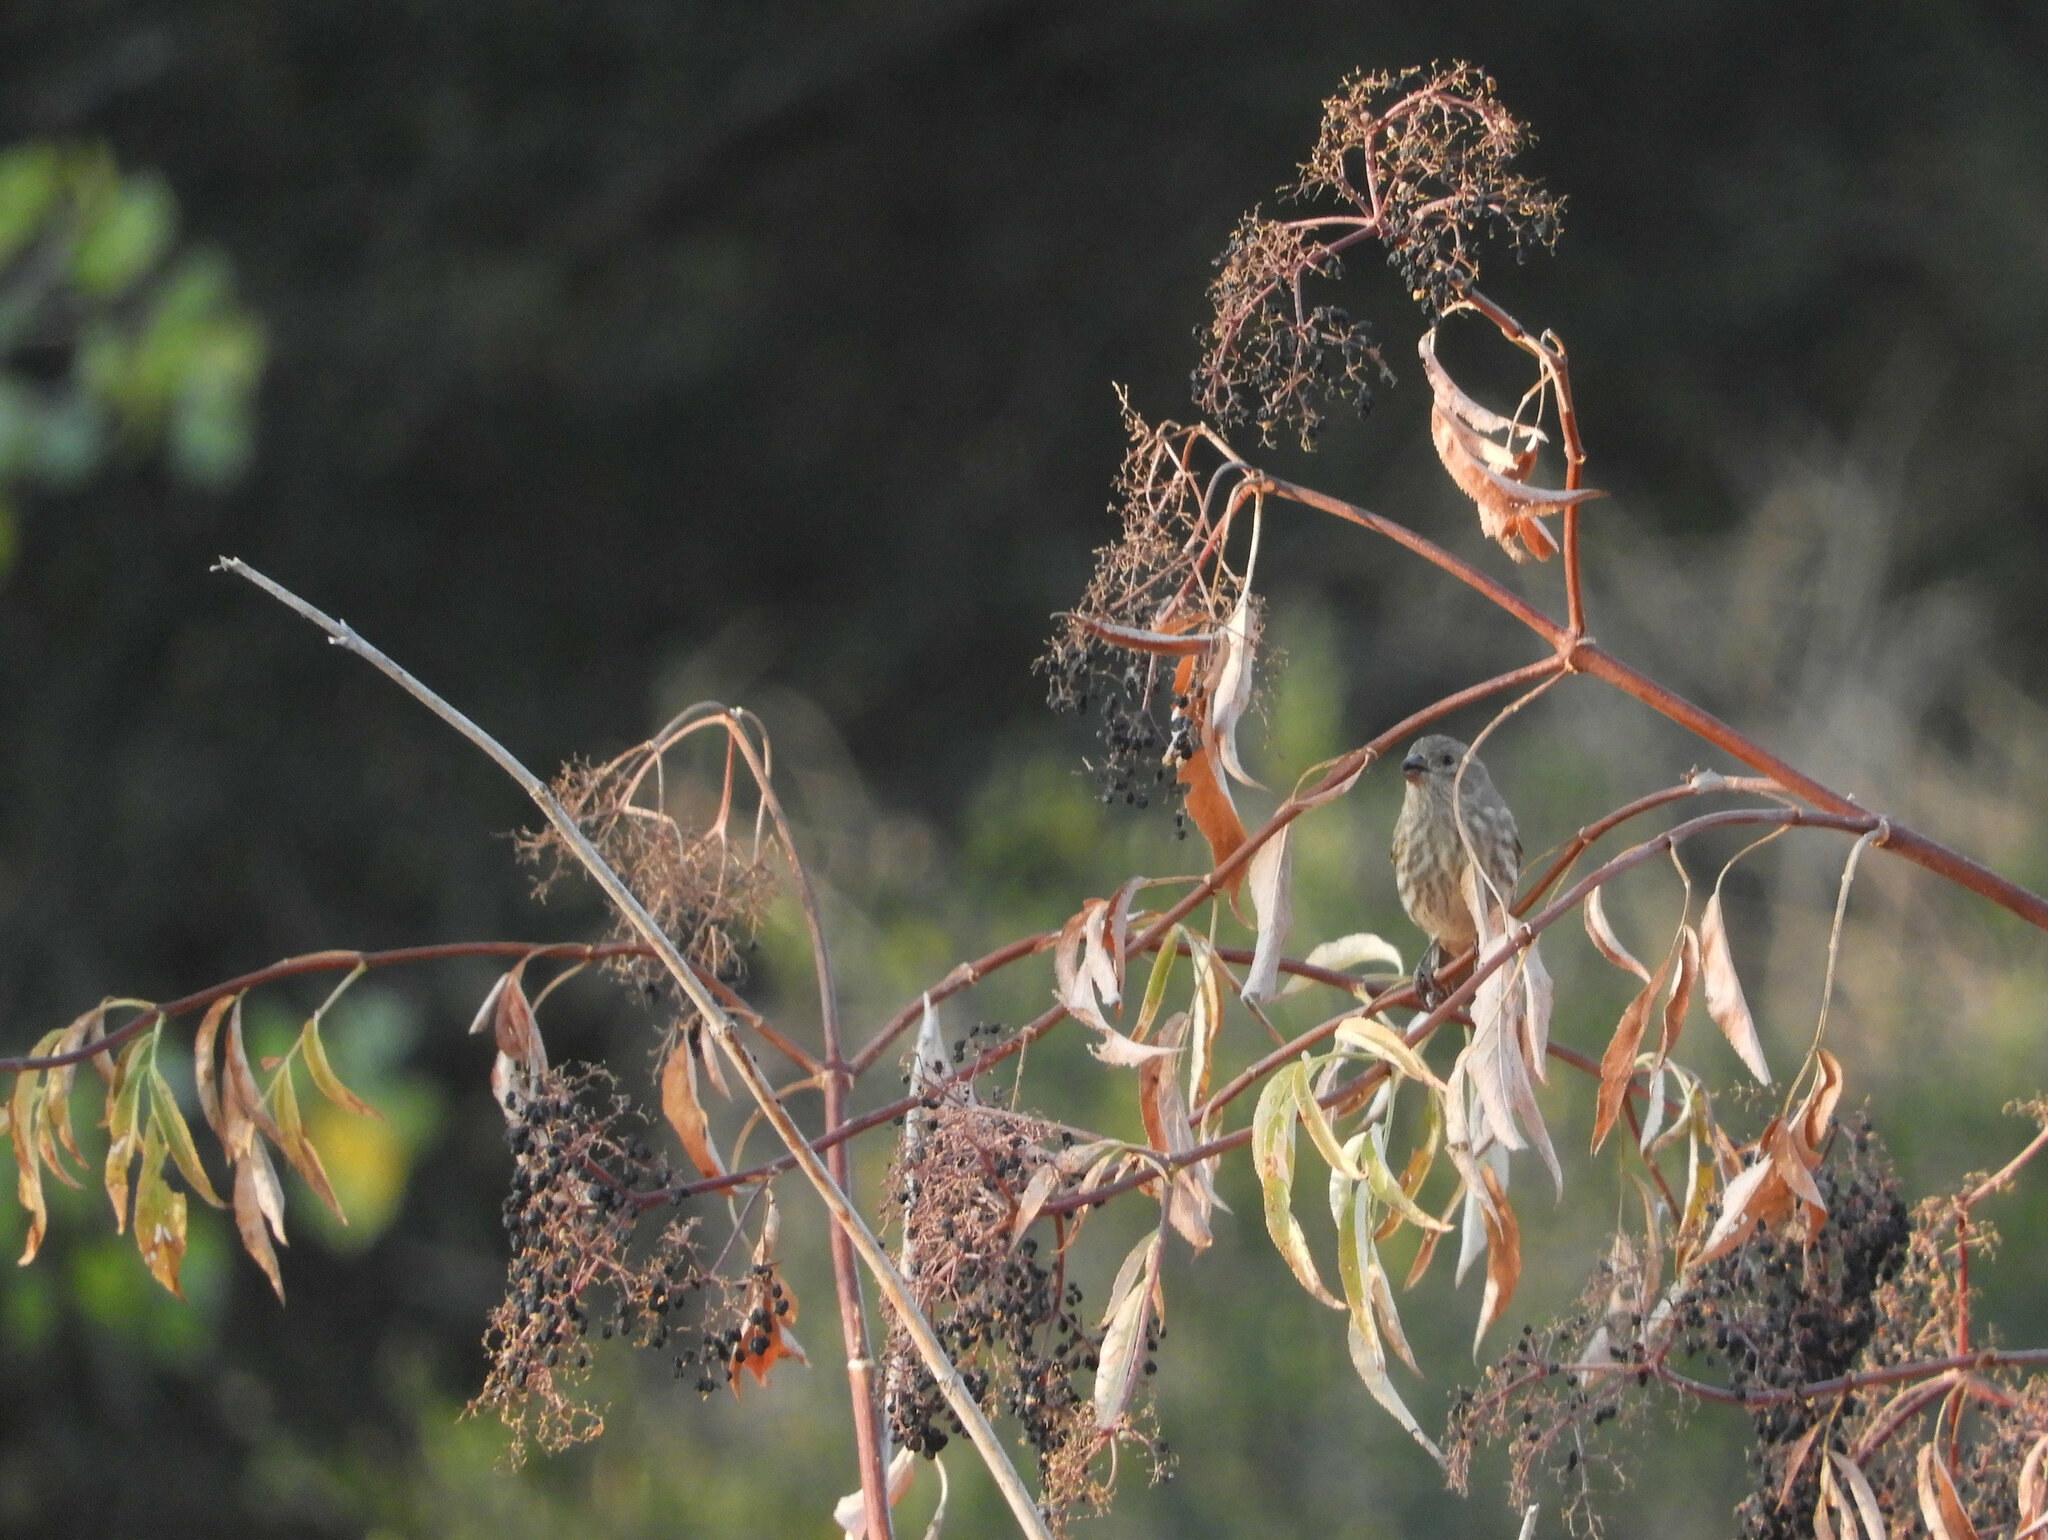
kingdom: Animalia
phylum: Chordata
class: Aves
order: Passeriformes
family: Fringillidae
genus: Haemorhous
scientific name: Haemorhous mexicanus
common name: House finch
